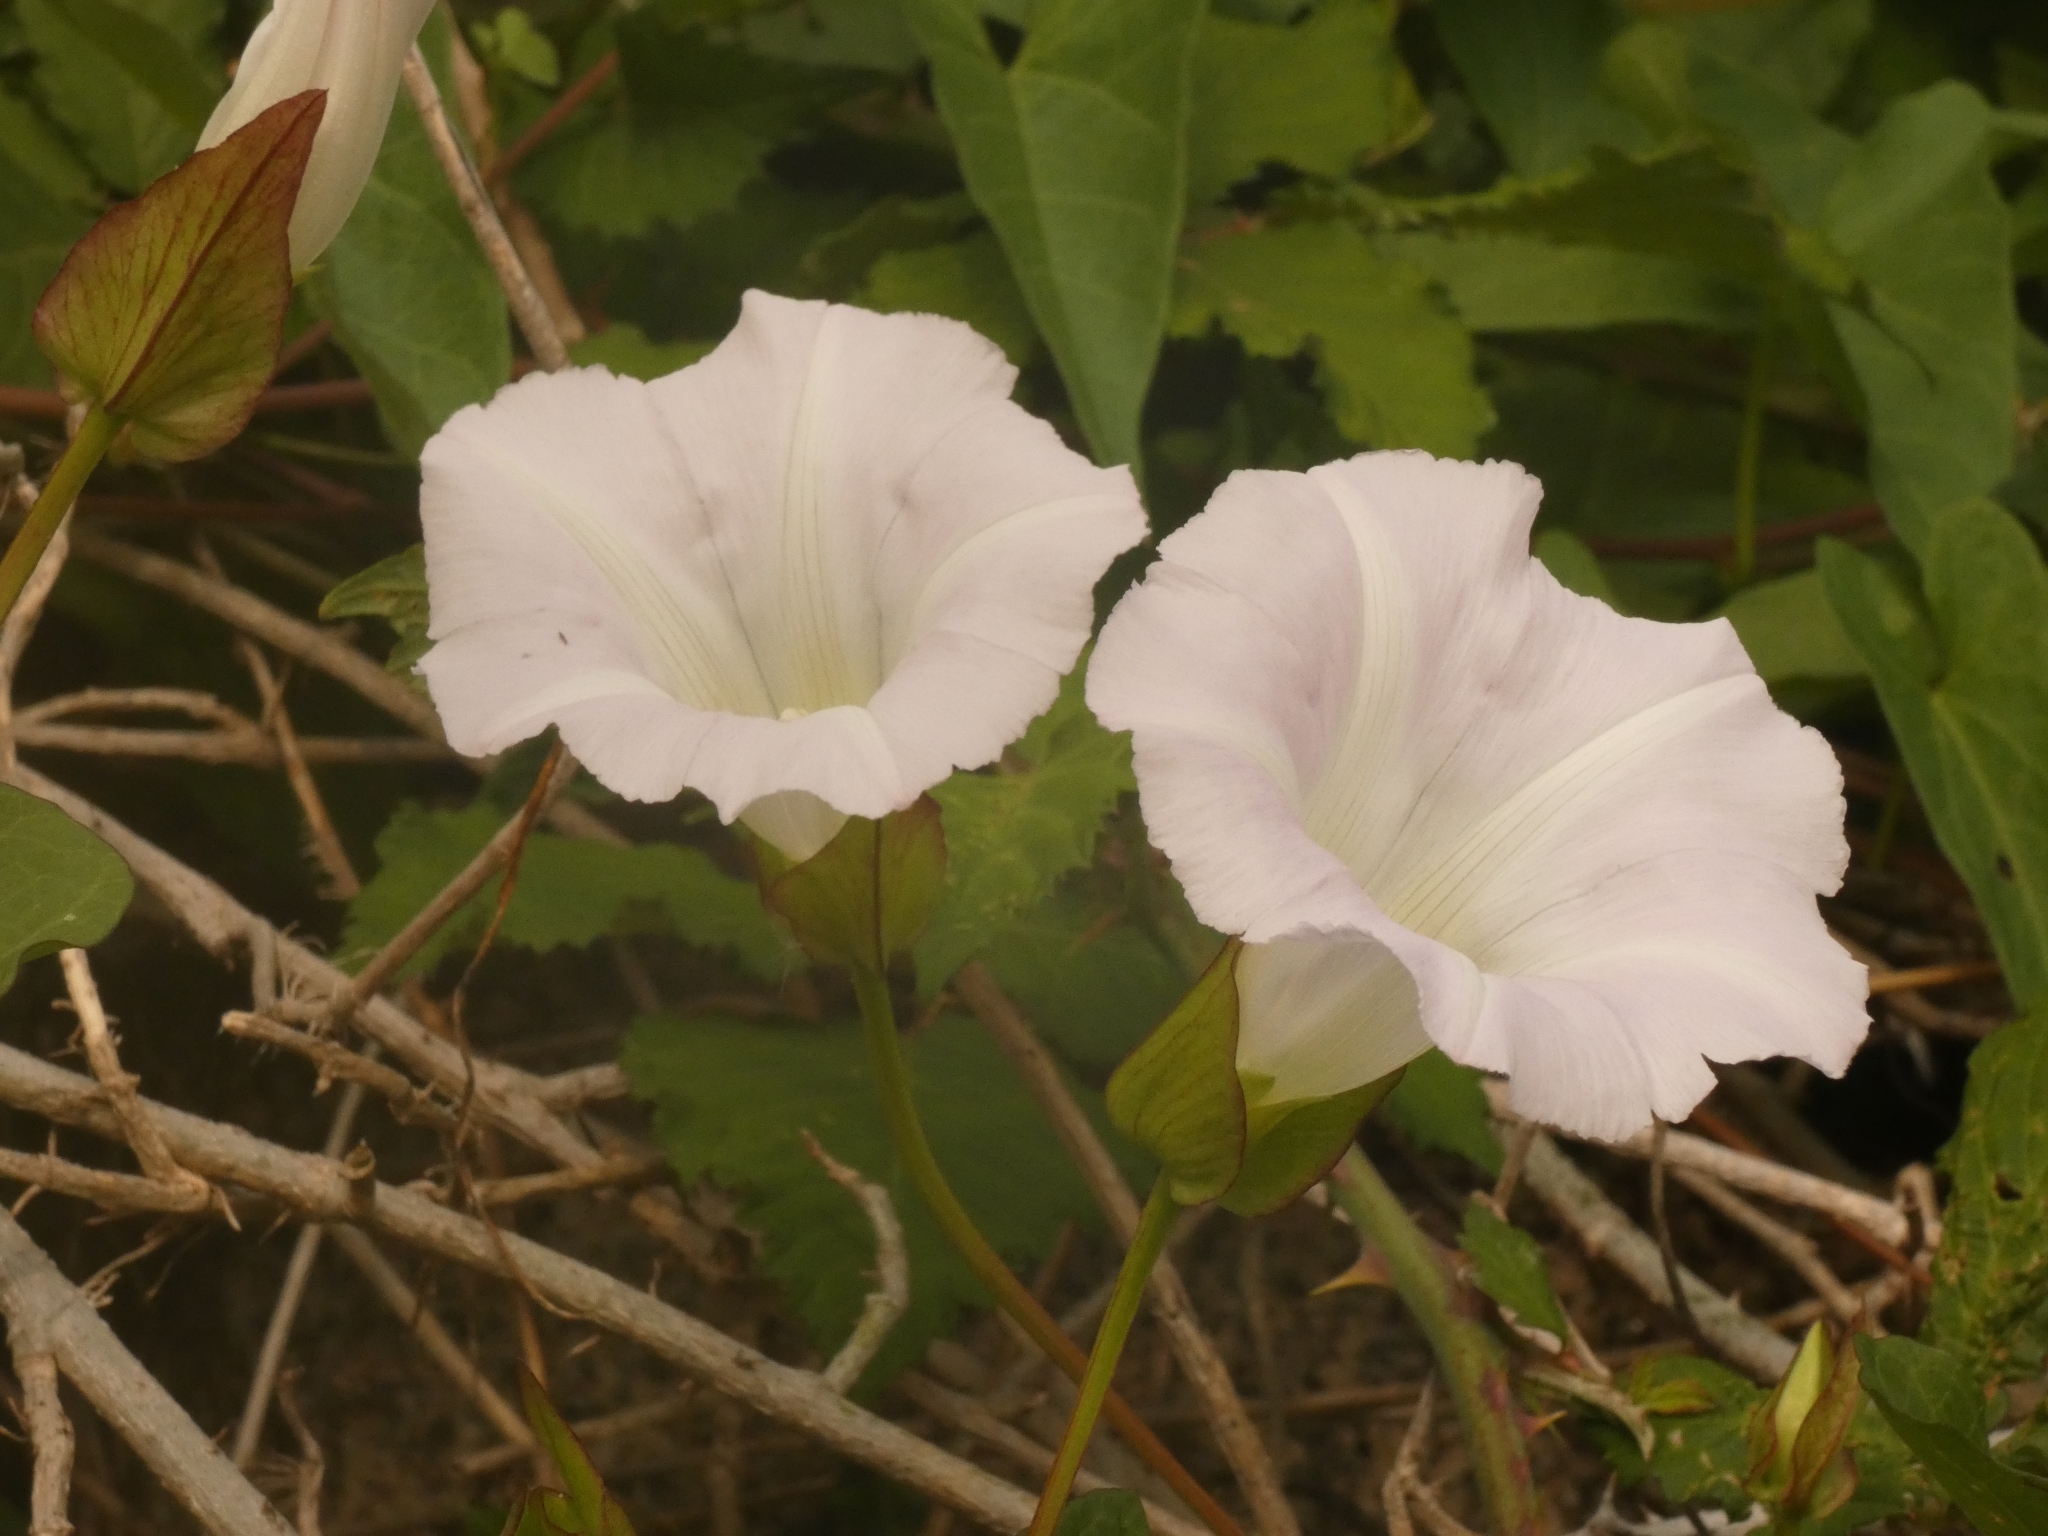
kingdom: Plantae
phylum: Tracheophyta
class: Magnoliopsida
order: Solanales
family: Convolvulaceae
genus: Calystegia
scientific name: Calystegia silvatica
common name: Large bindweed
